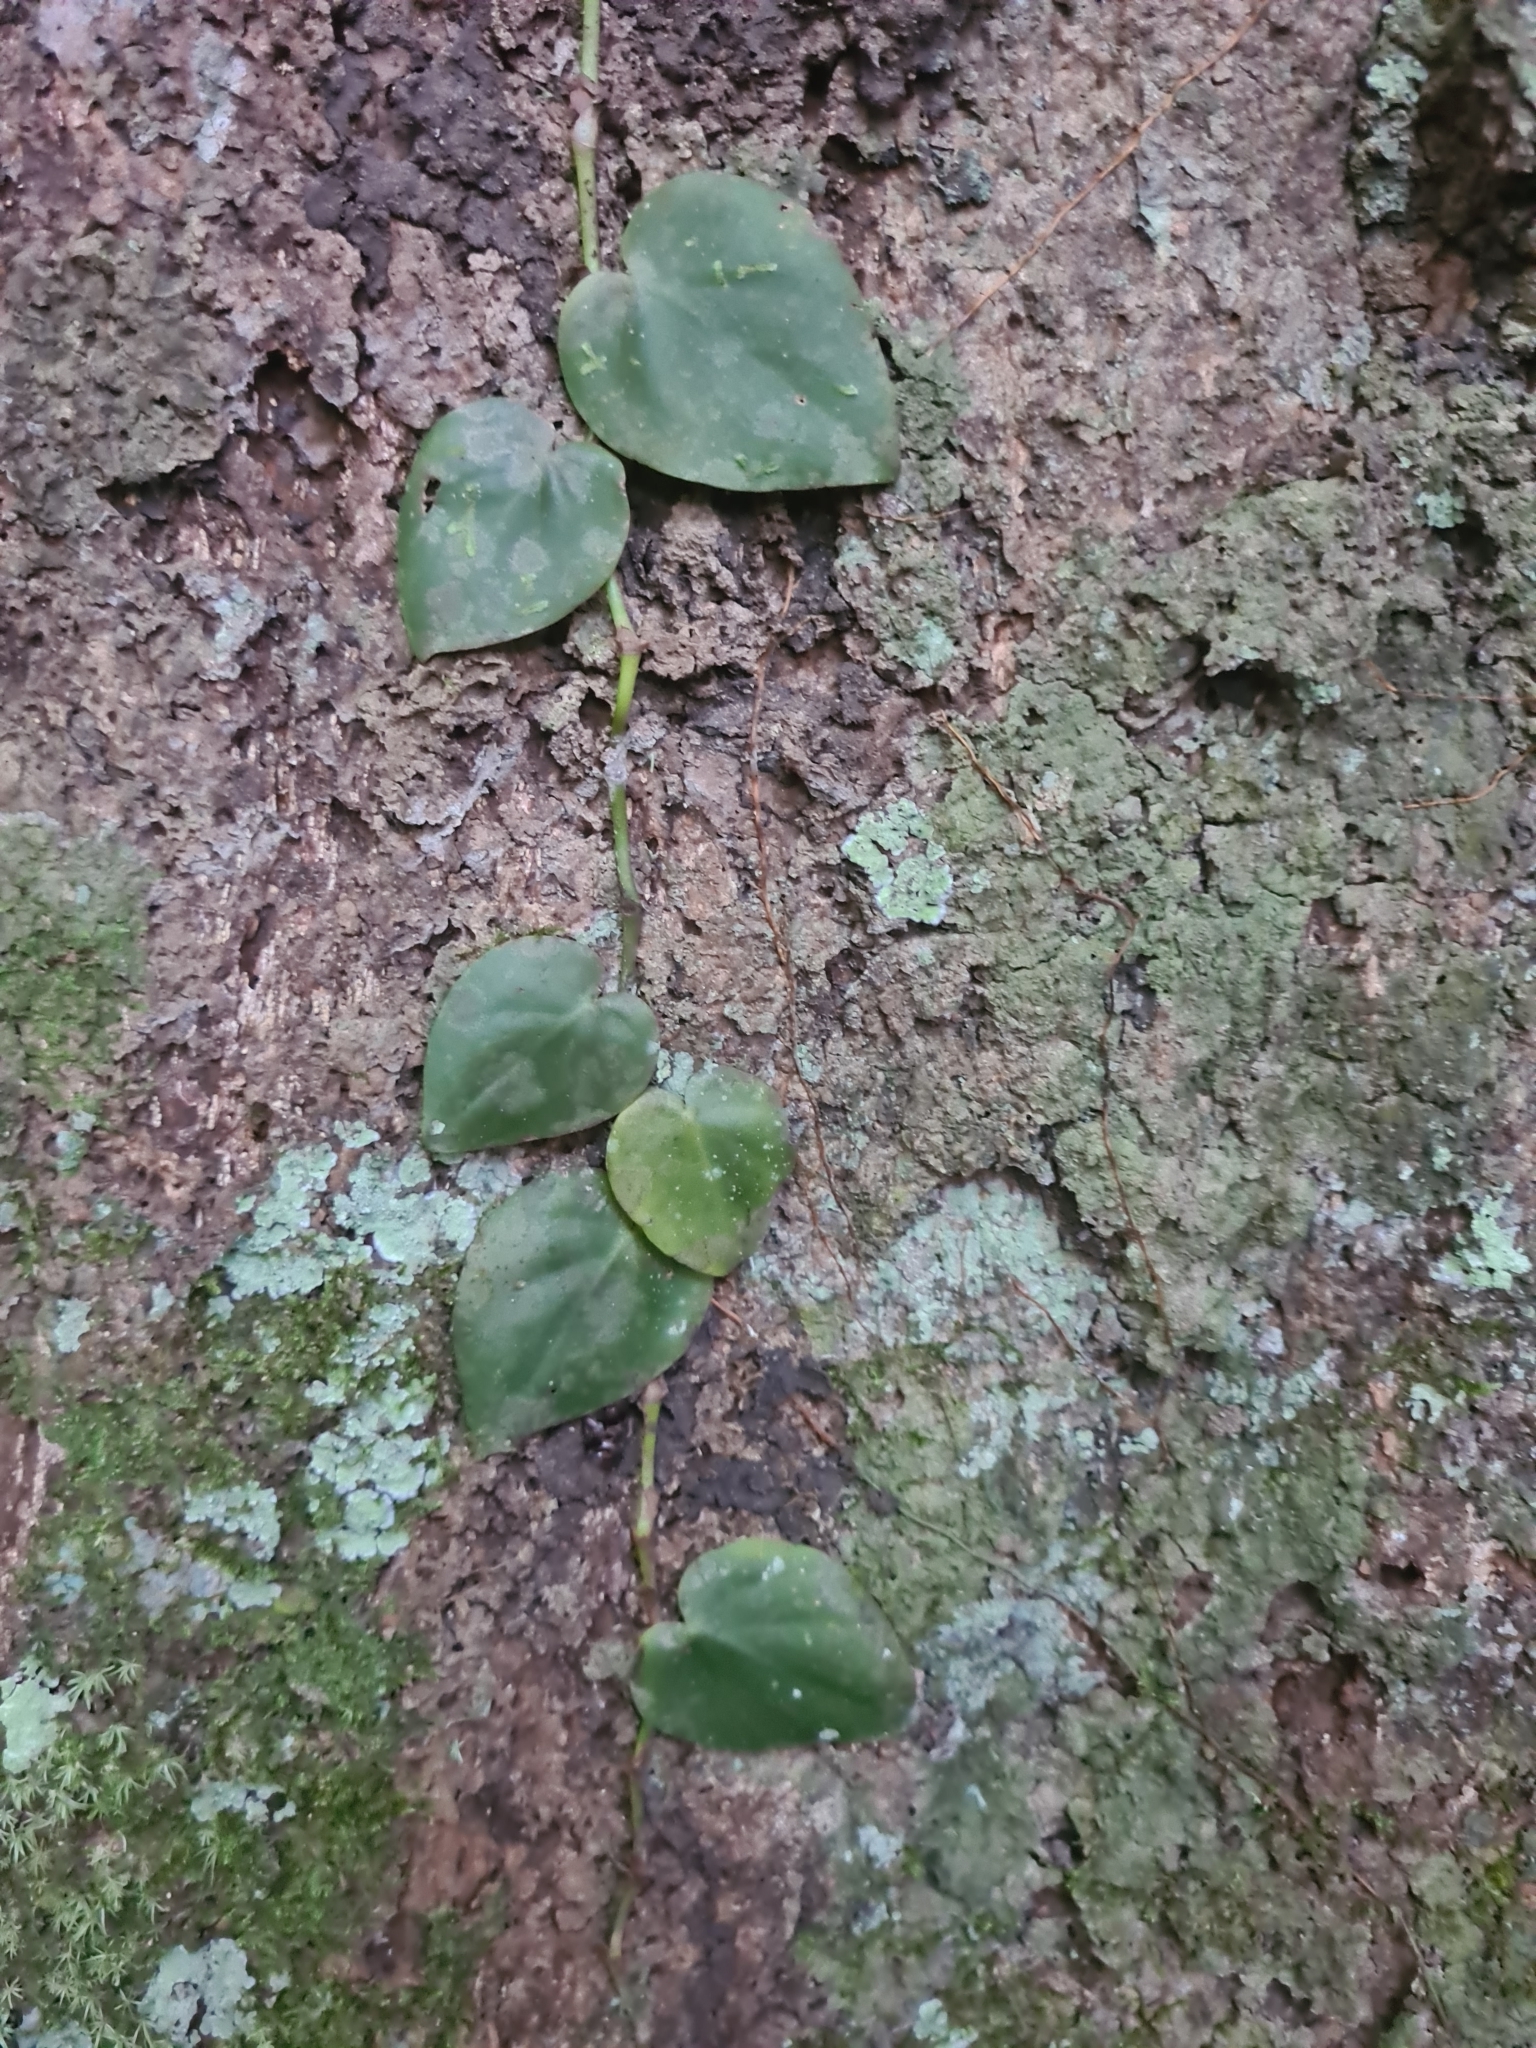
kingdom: Plantae
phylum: Tracheophyta
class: Liliopsida
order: Alismatales
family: Araceae
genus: Philodendron
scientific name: Philodendron hederaceum
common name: Vilevine
